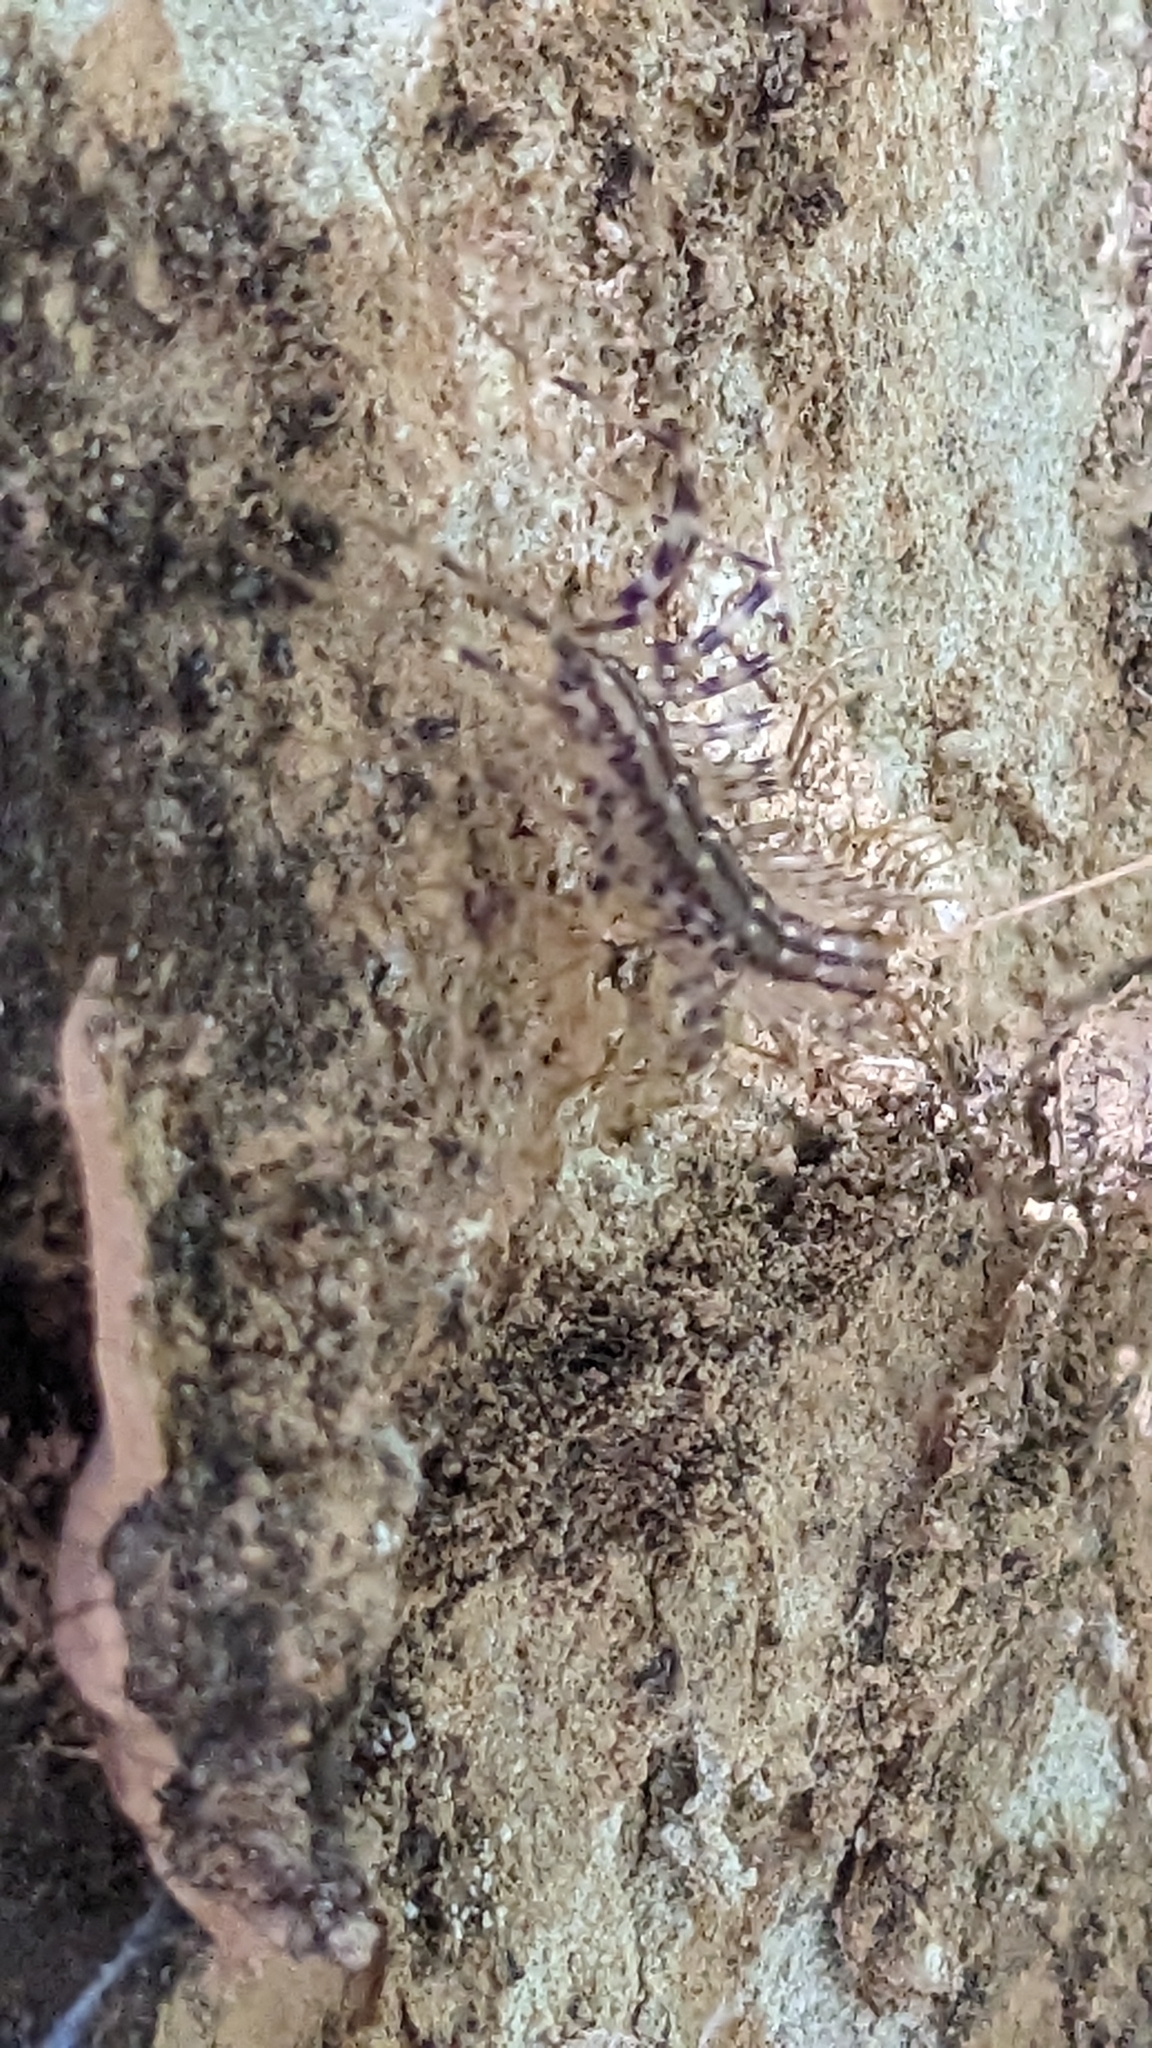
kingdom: Animalia
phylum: Arthropoda
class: Chilopoda
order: Scutigeromorpha
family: Scutigeridae
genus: Scutigera
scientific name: Scutigera coleoptrata
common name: House centipede
